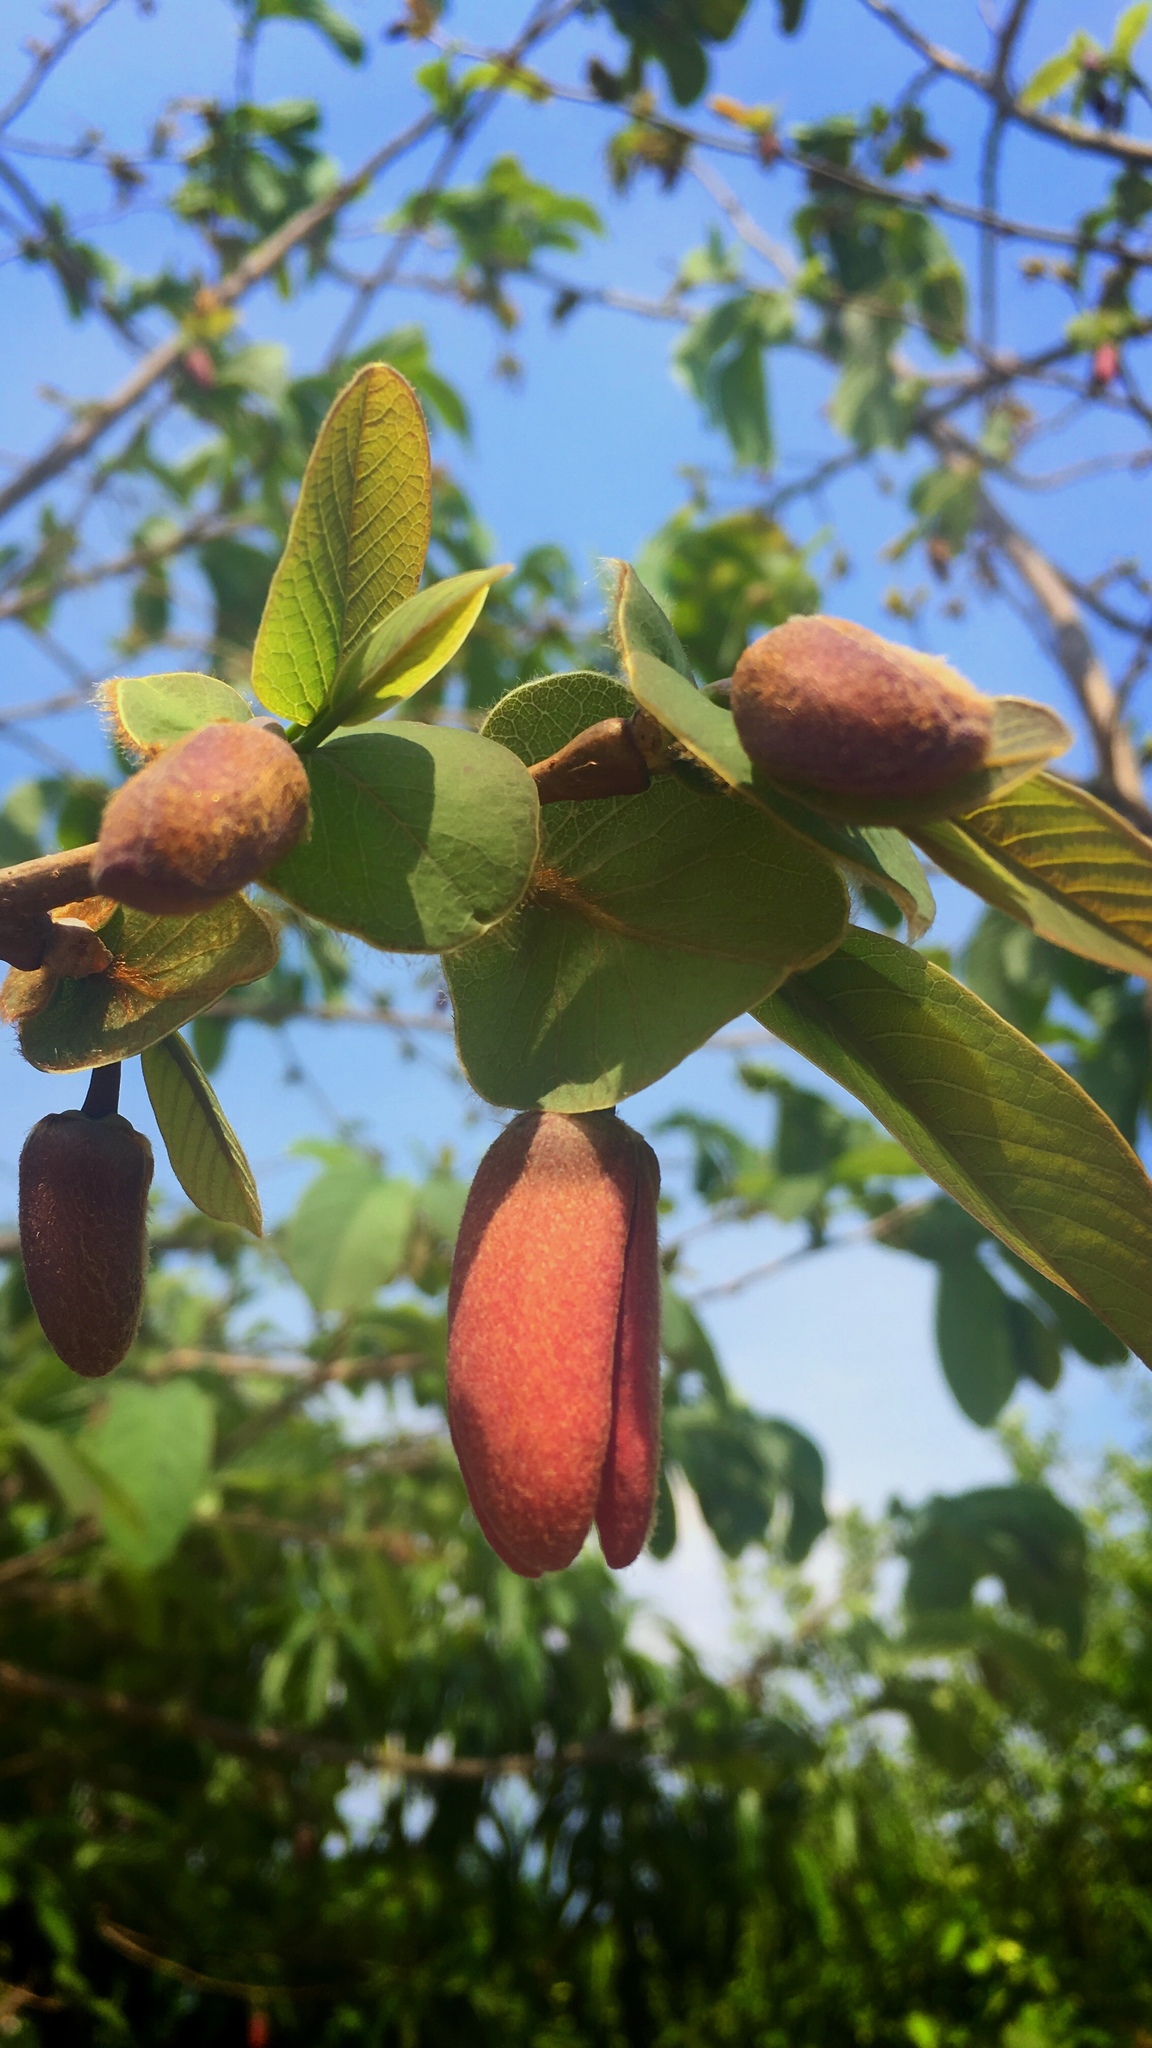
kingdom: Plantae
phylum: Tracheophyta
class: Magnoliopsida
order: Magnoliales
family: Annonaceae
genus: Annona
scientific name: Annona macroprophyllata
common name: Ilama
